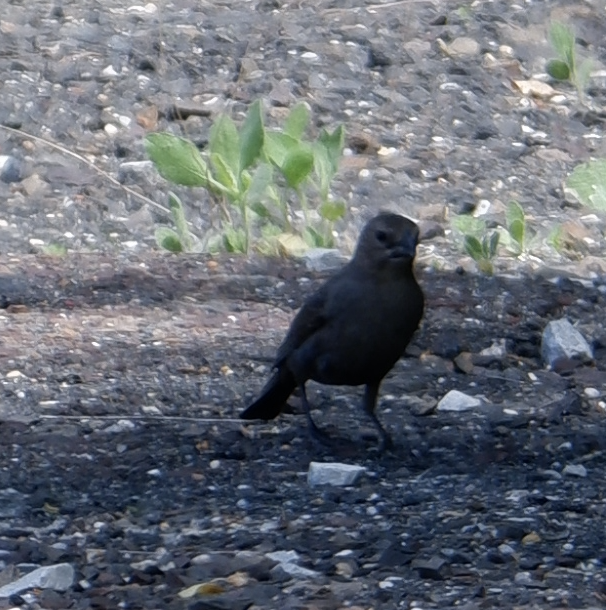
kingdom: Animalia
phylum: Chordata
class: Aves
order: Passeriformes
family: Icteridae
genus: Molothrus
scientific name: Molothrus ater
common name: Brown-headed cowbird
